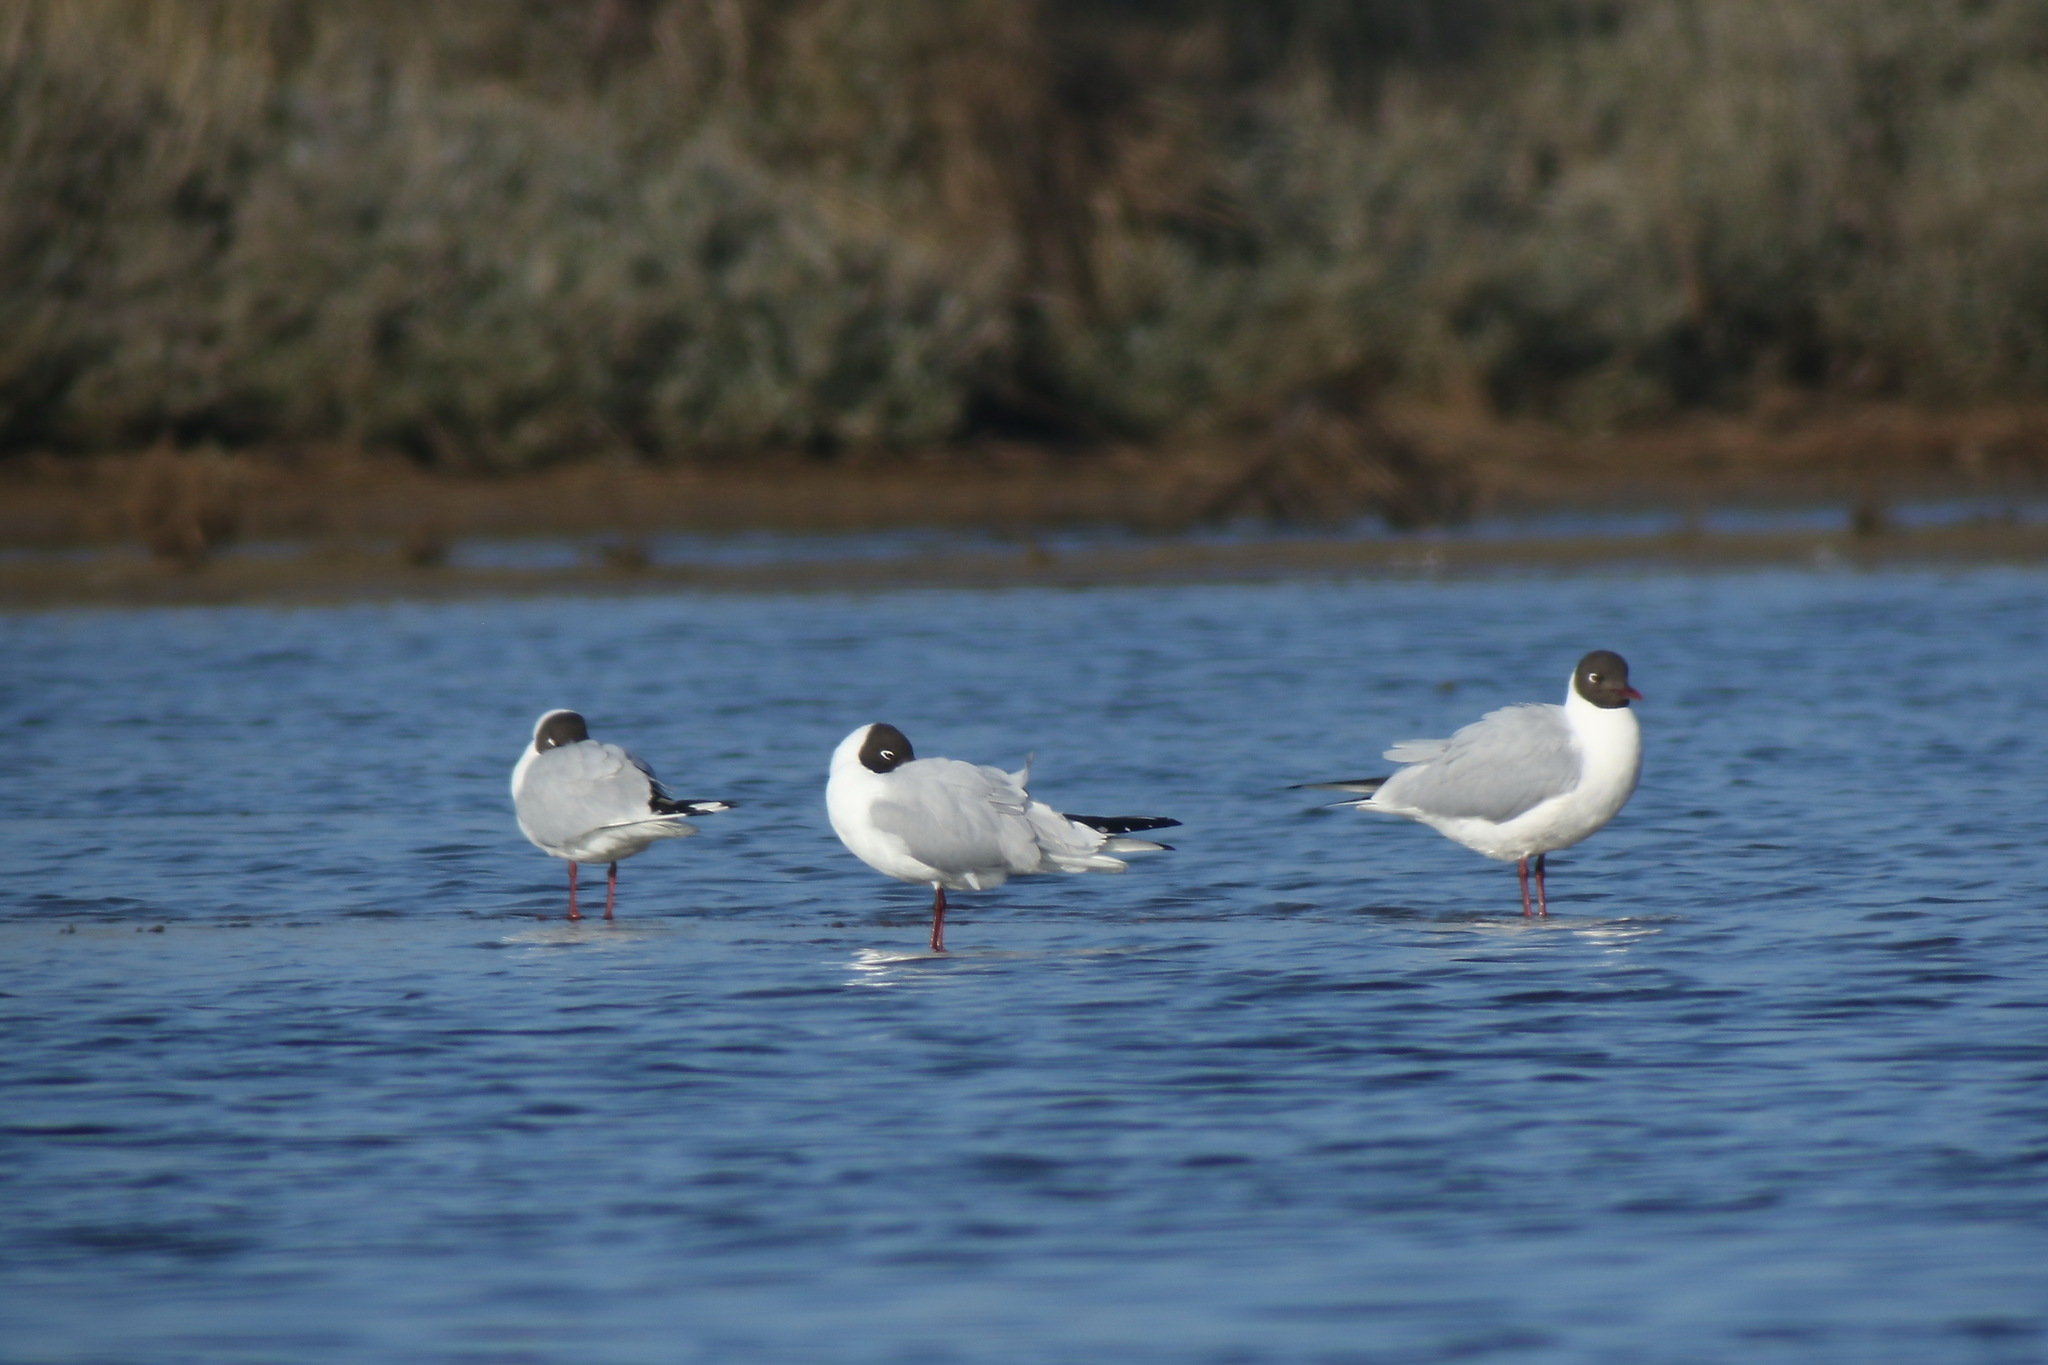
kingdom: Animalia
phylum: Chordata
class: Aves
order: Charadriiformes
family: Laridae
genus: Chroicocephalus
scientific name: Chroicocephalus ridibundus
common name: Black-headed gull
